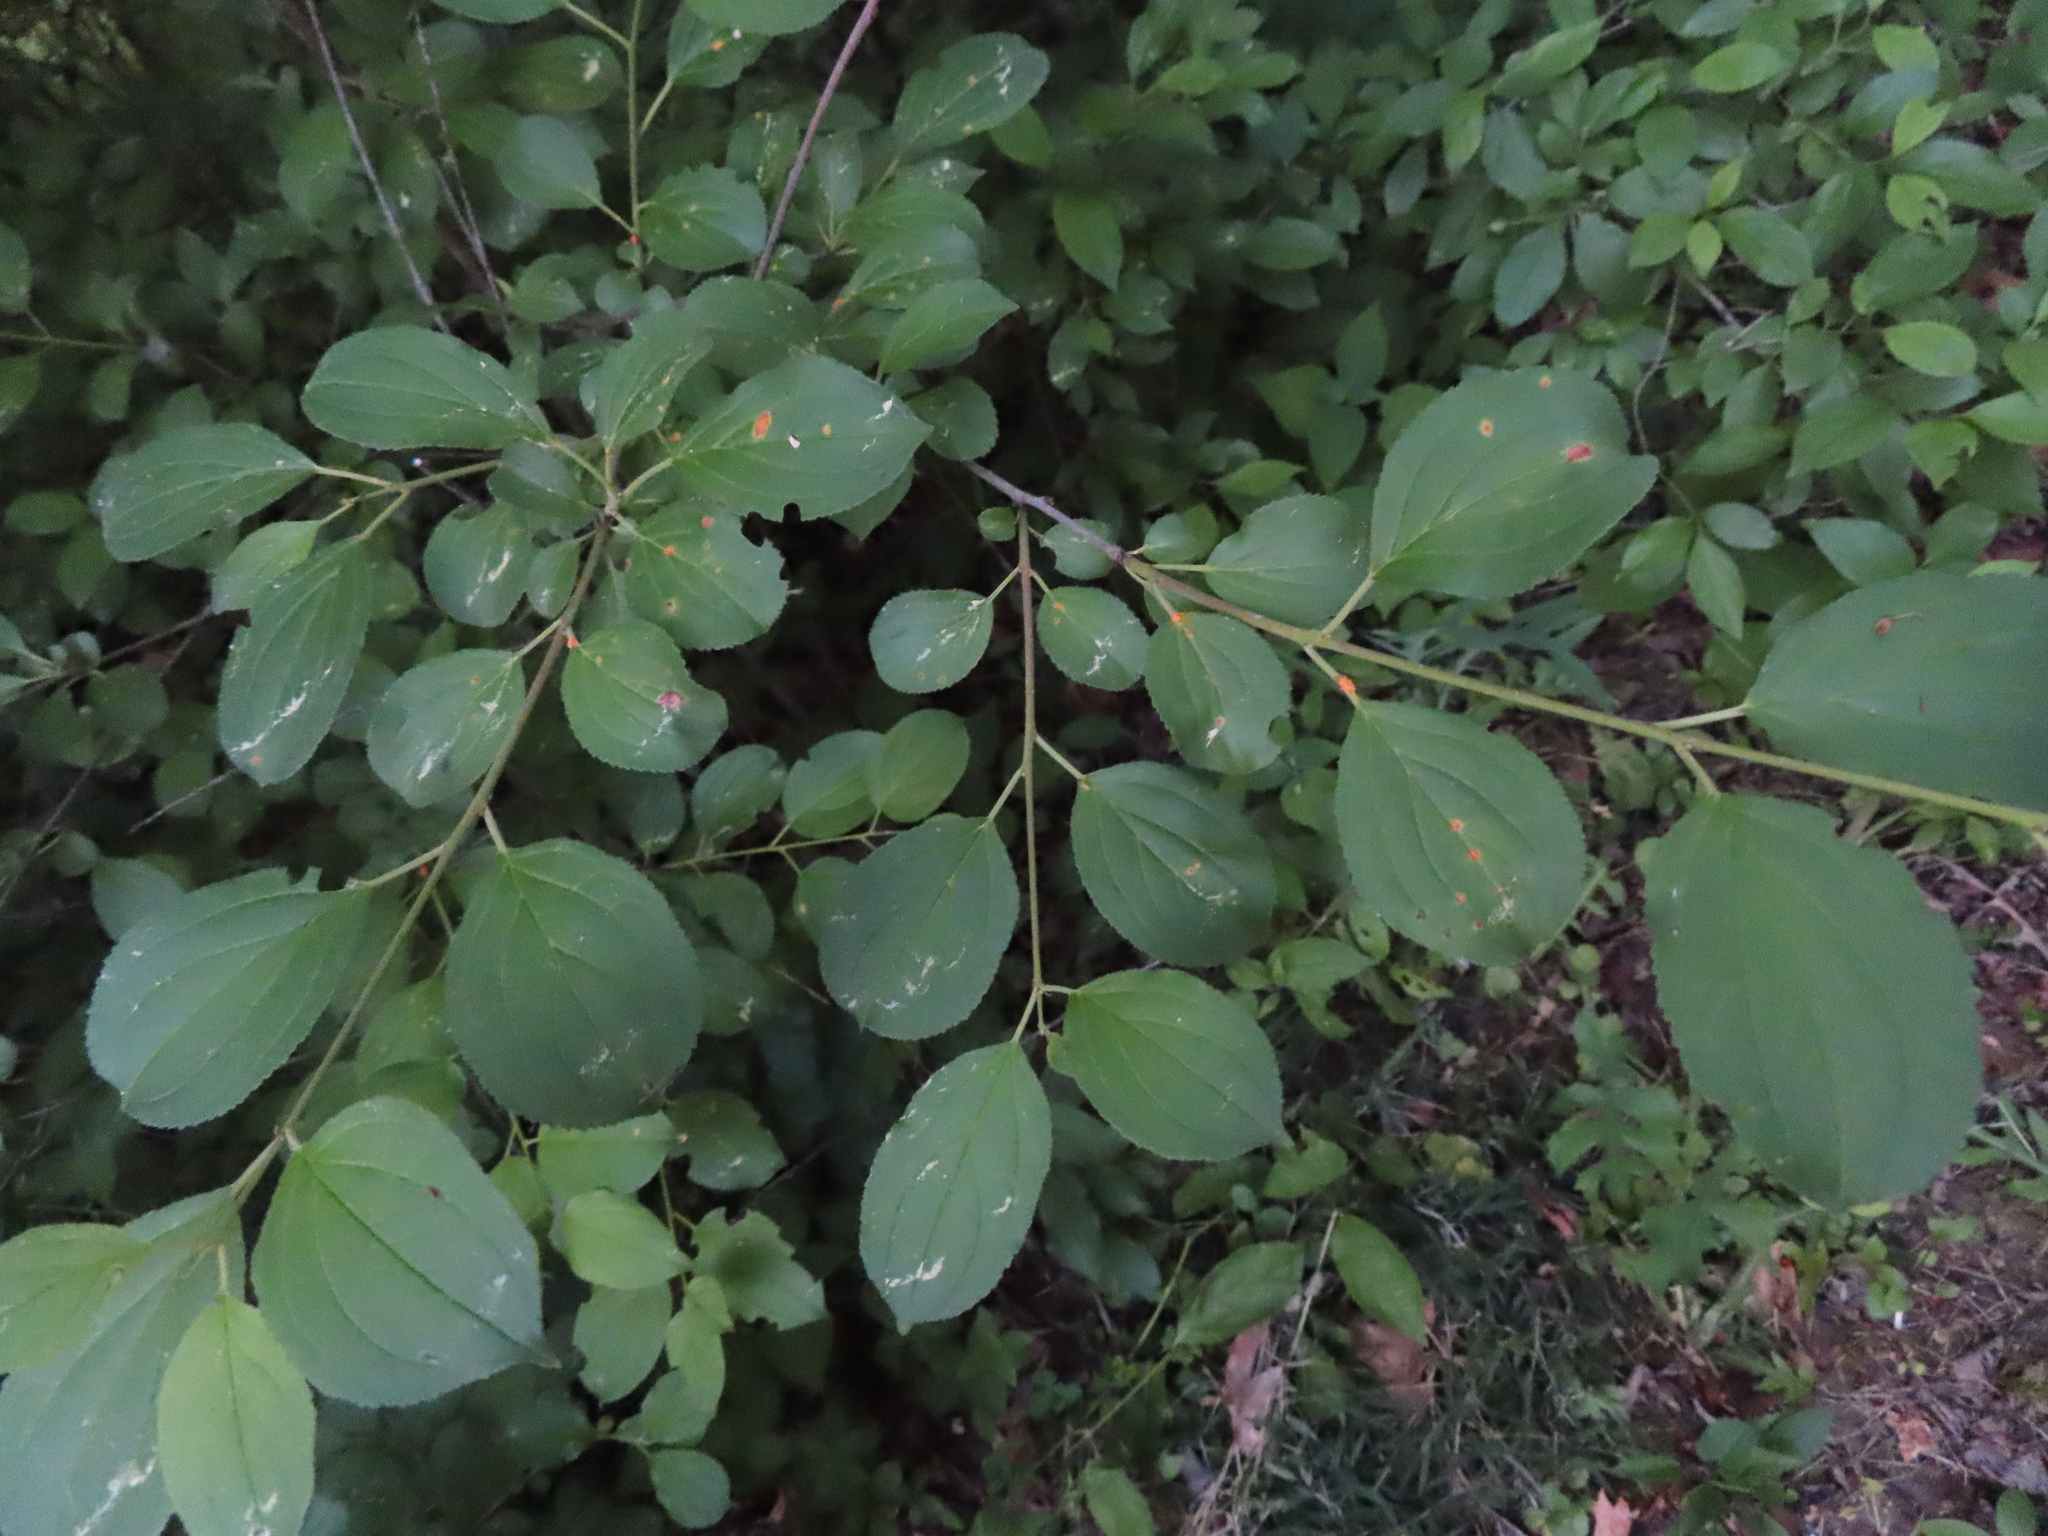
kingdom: Plantae
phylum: Tracheophyta
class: Magnoliopsida
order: Rosales
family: Rhamnaceae
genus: Rhamnus
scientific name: Rhamnus cathartica
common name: Common buckthorn
